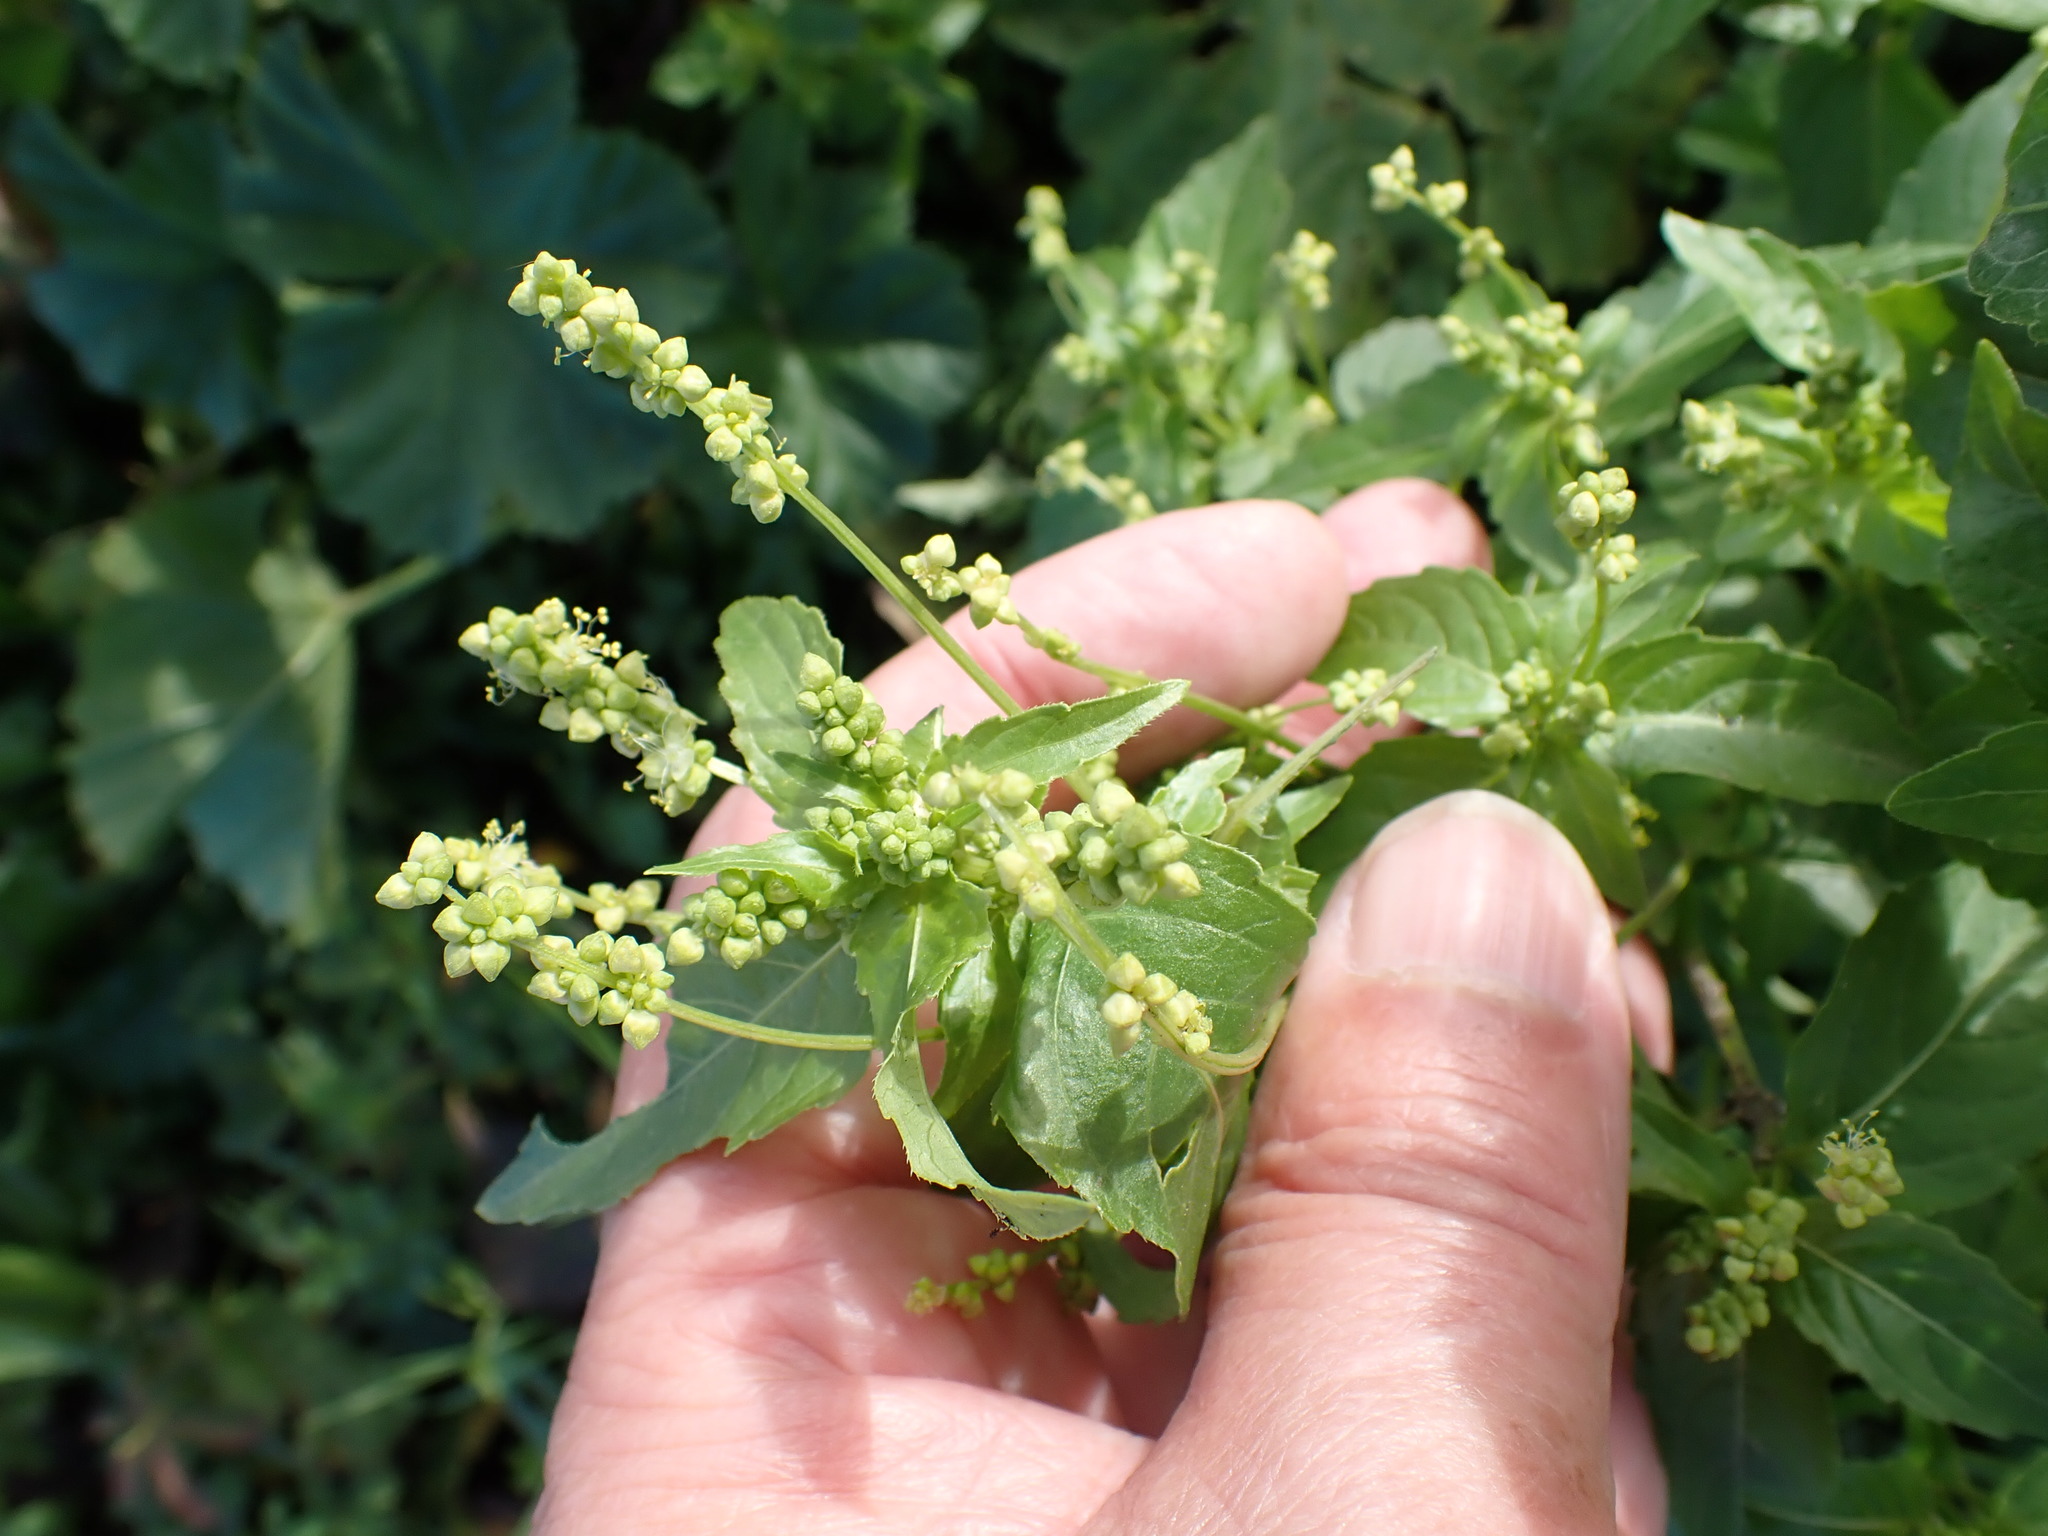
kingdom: Plantae
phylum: Tracheophyta
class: Magnoliopsida
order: Malpighiales
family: Euphorbiaceae
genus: Mercurialis
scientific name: Mercurialis annua
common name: Annual mercury
